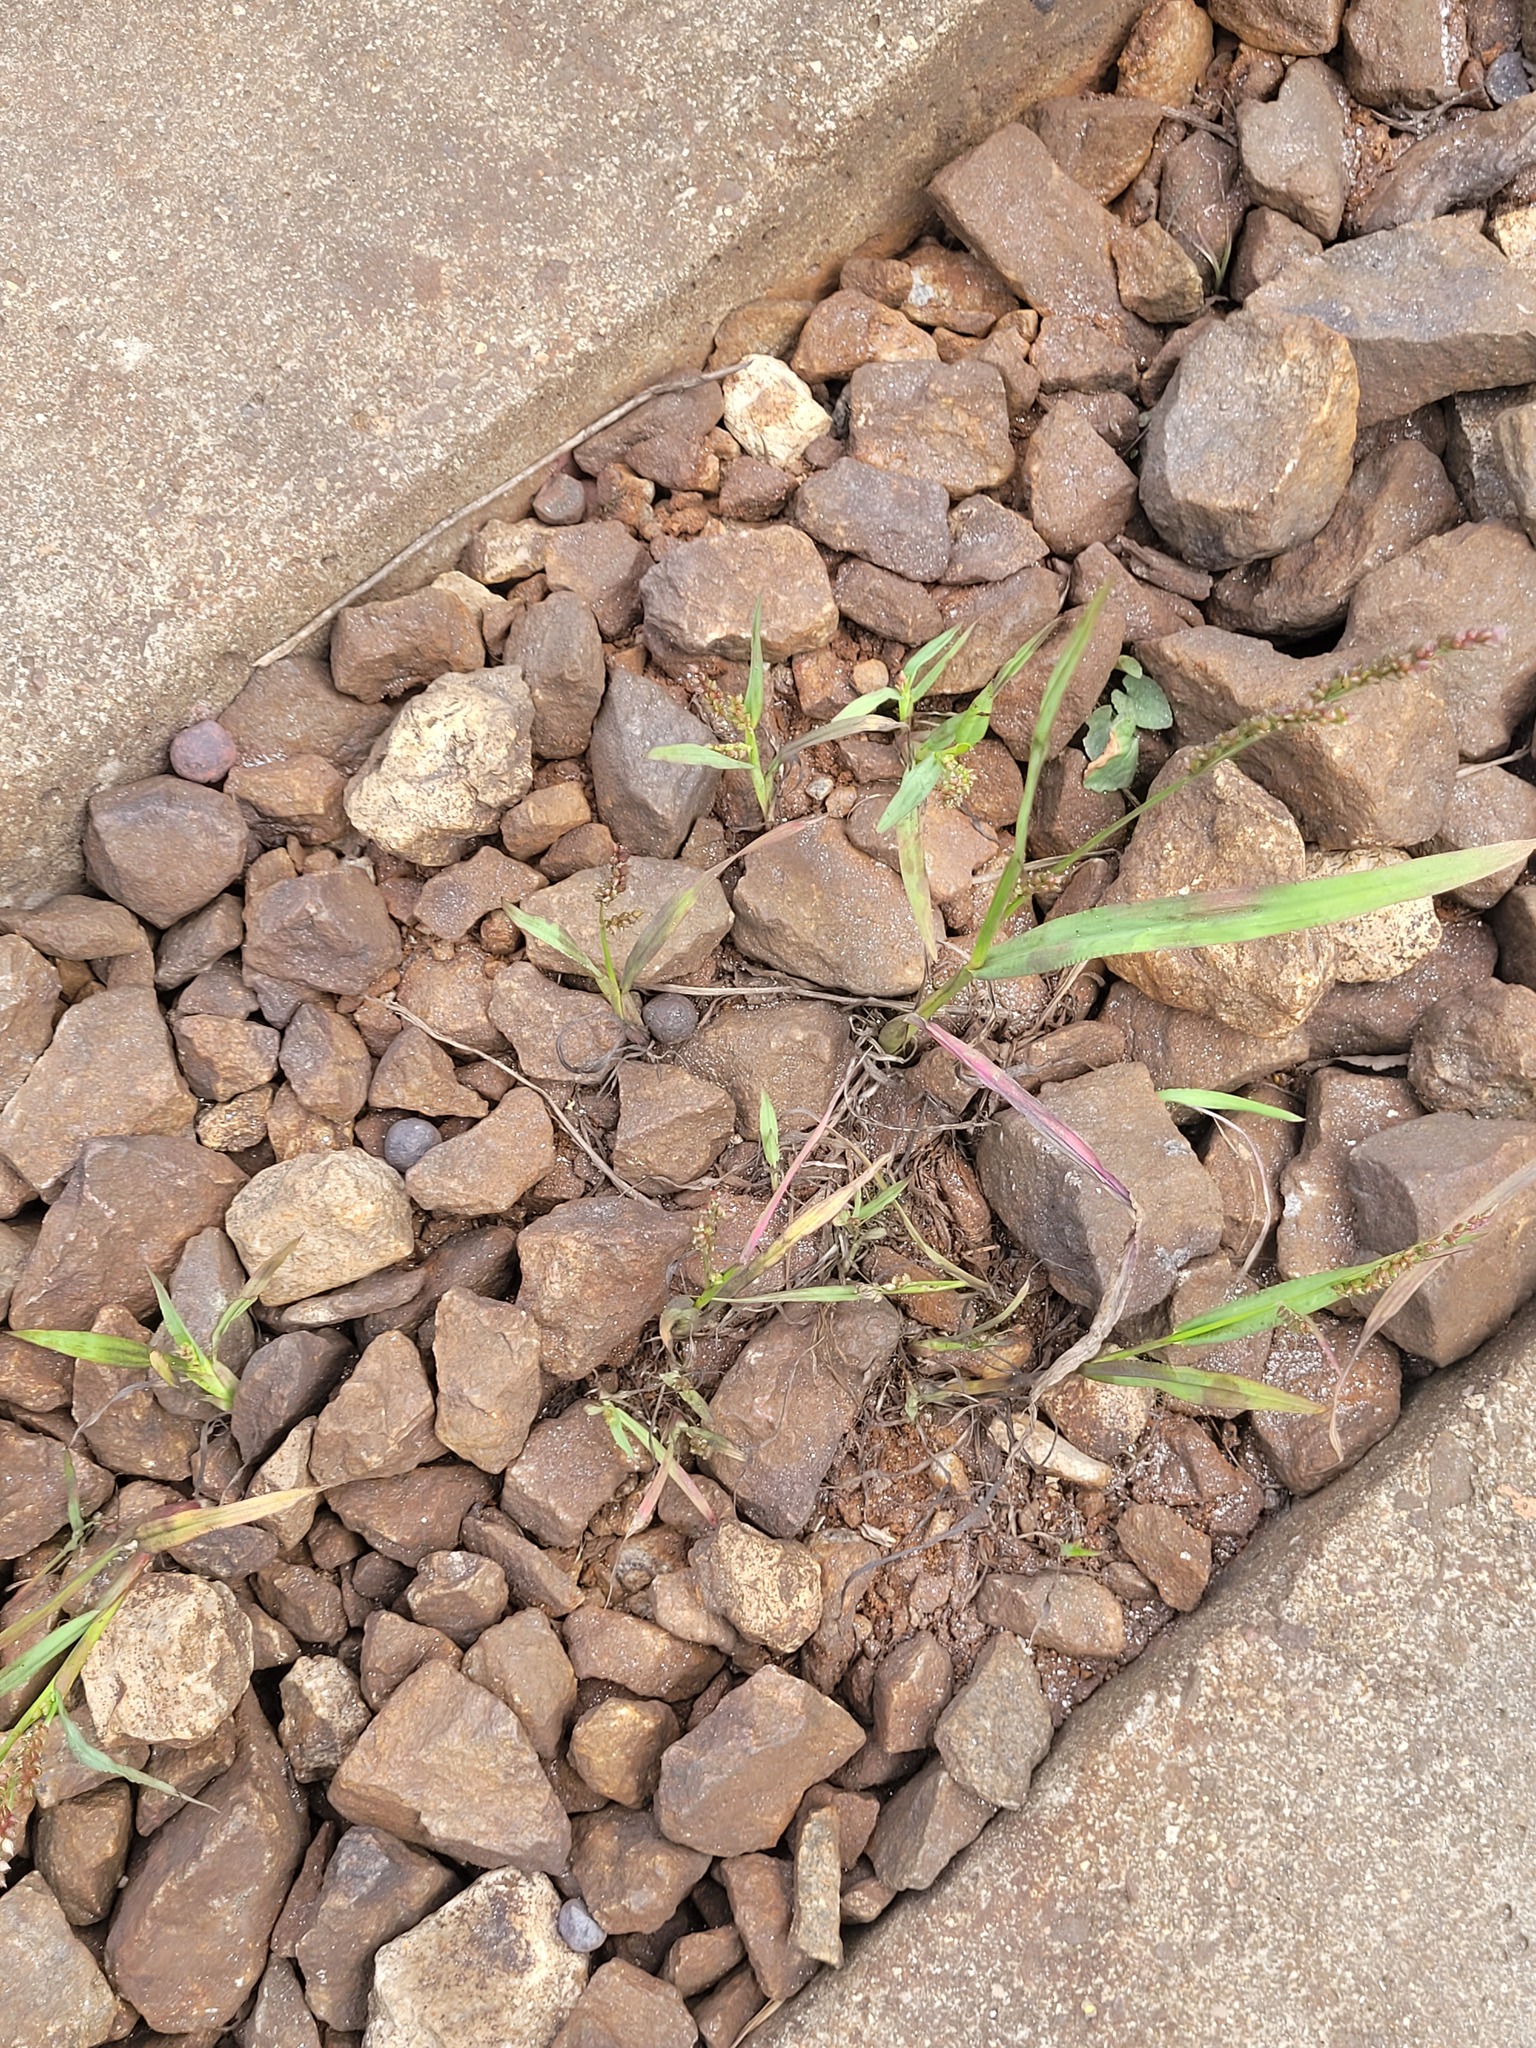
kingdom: Plantae
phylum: Tracheophyta
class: Liliopsida
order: Poales
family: Poaceae
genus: Echinochloa
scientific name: Echinochloa crus-galli
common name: Cockspur
